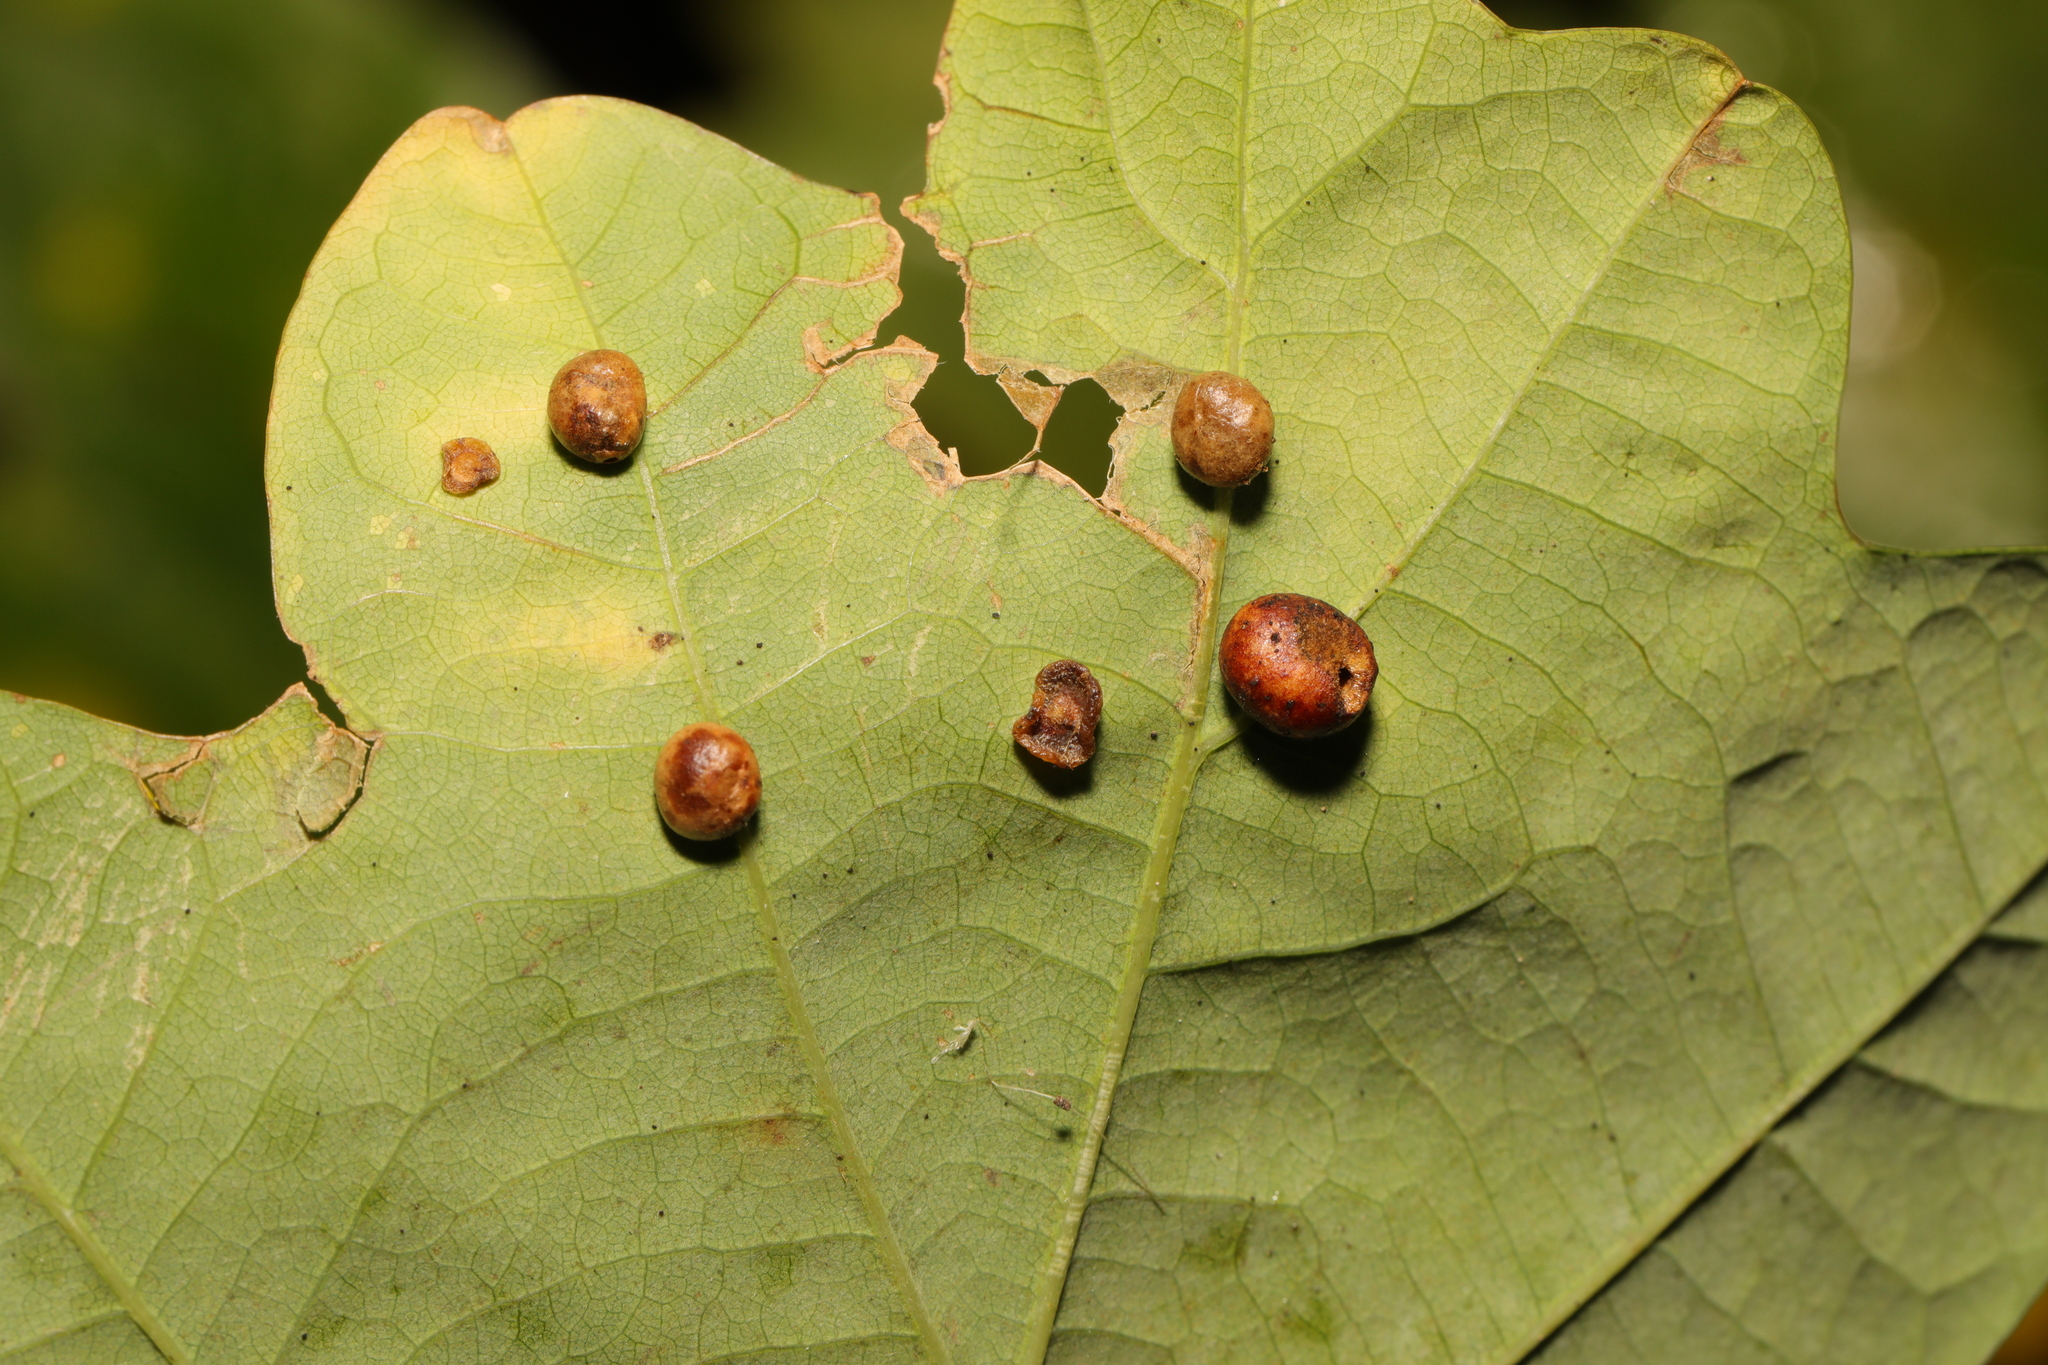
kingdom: Animalia
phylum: Arthropoda
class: Insecta
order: Hymenoptera
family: Cynipidae
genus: Neuroterus
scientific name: Neuroterus quercusbaccarum
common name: Common spangle gall
